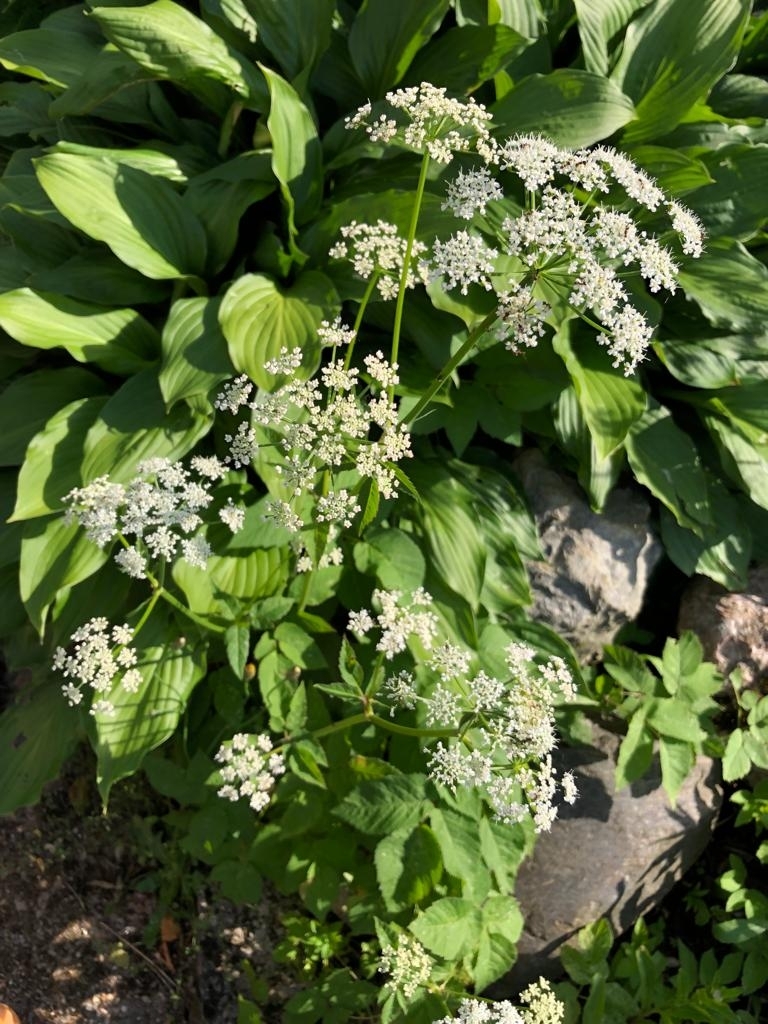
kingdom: Plantae
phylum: Tracheophyta
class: Magnoliopsida
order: Apiales
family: Apiaceae
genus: Aegopodium
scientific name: Aegopodium podagraria
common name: Ground-elder
